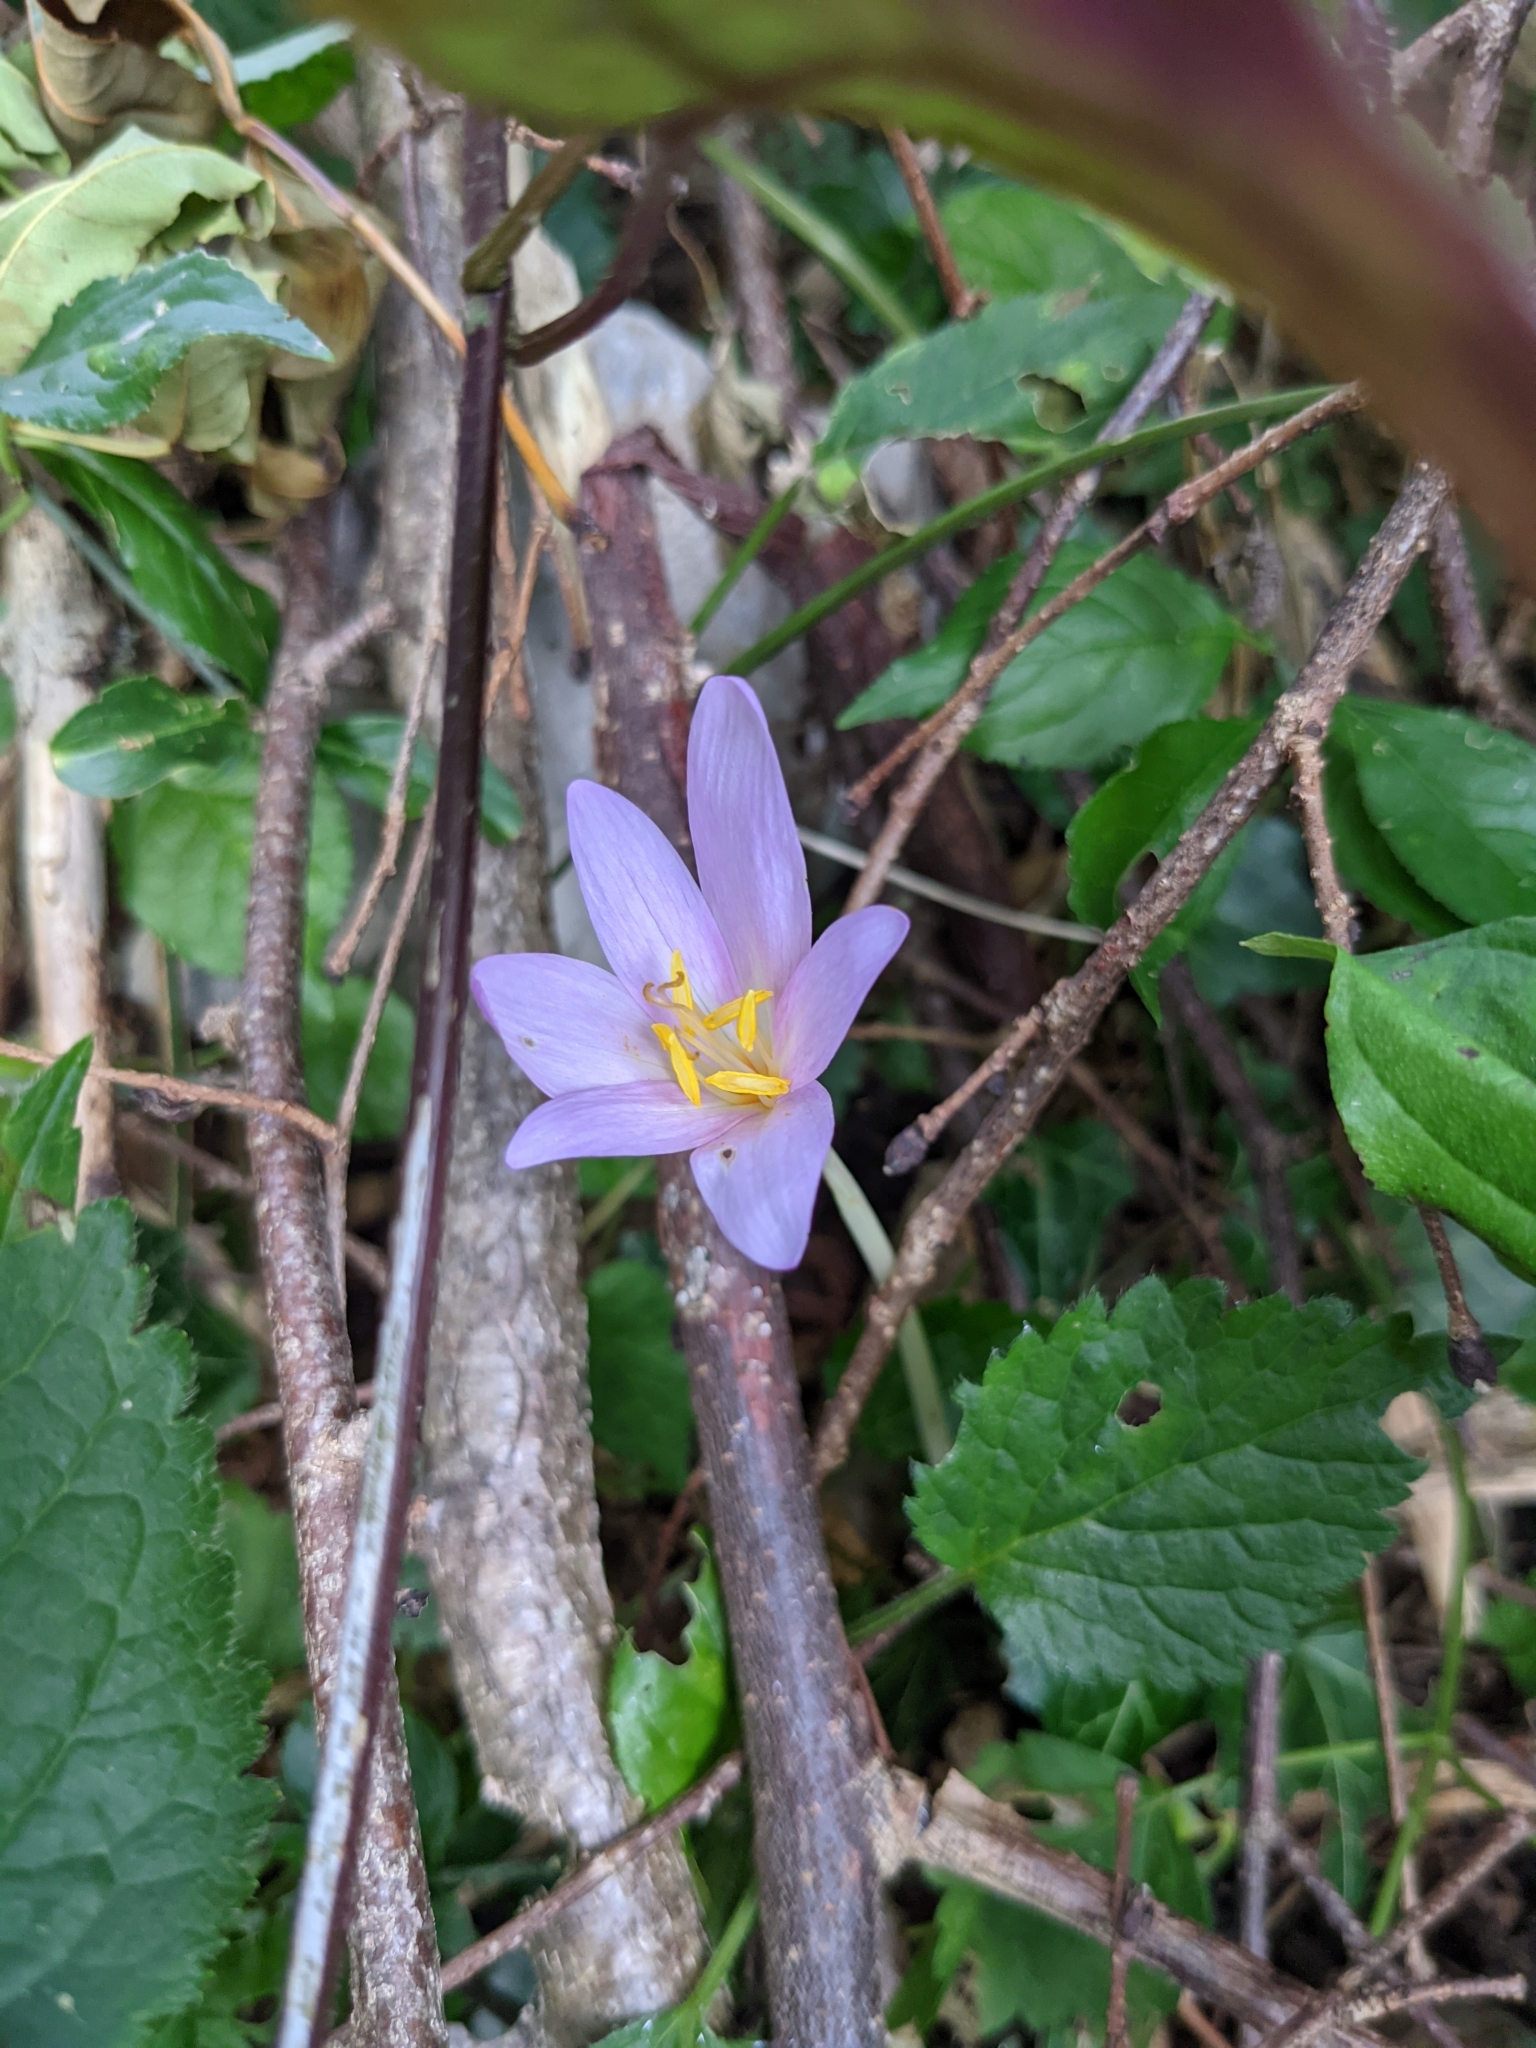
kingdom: Plantae
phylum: Tracheophyta
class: Liliopsida
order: Liliales
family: Colchicaceae
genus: Colchicum
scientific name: Colchicum autumnale
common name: Autumn crocus
